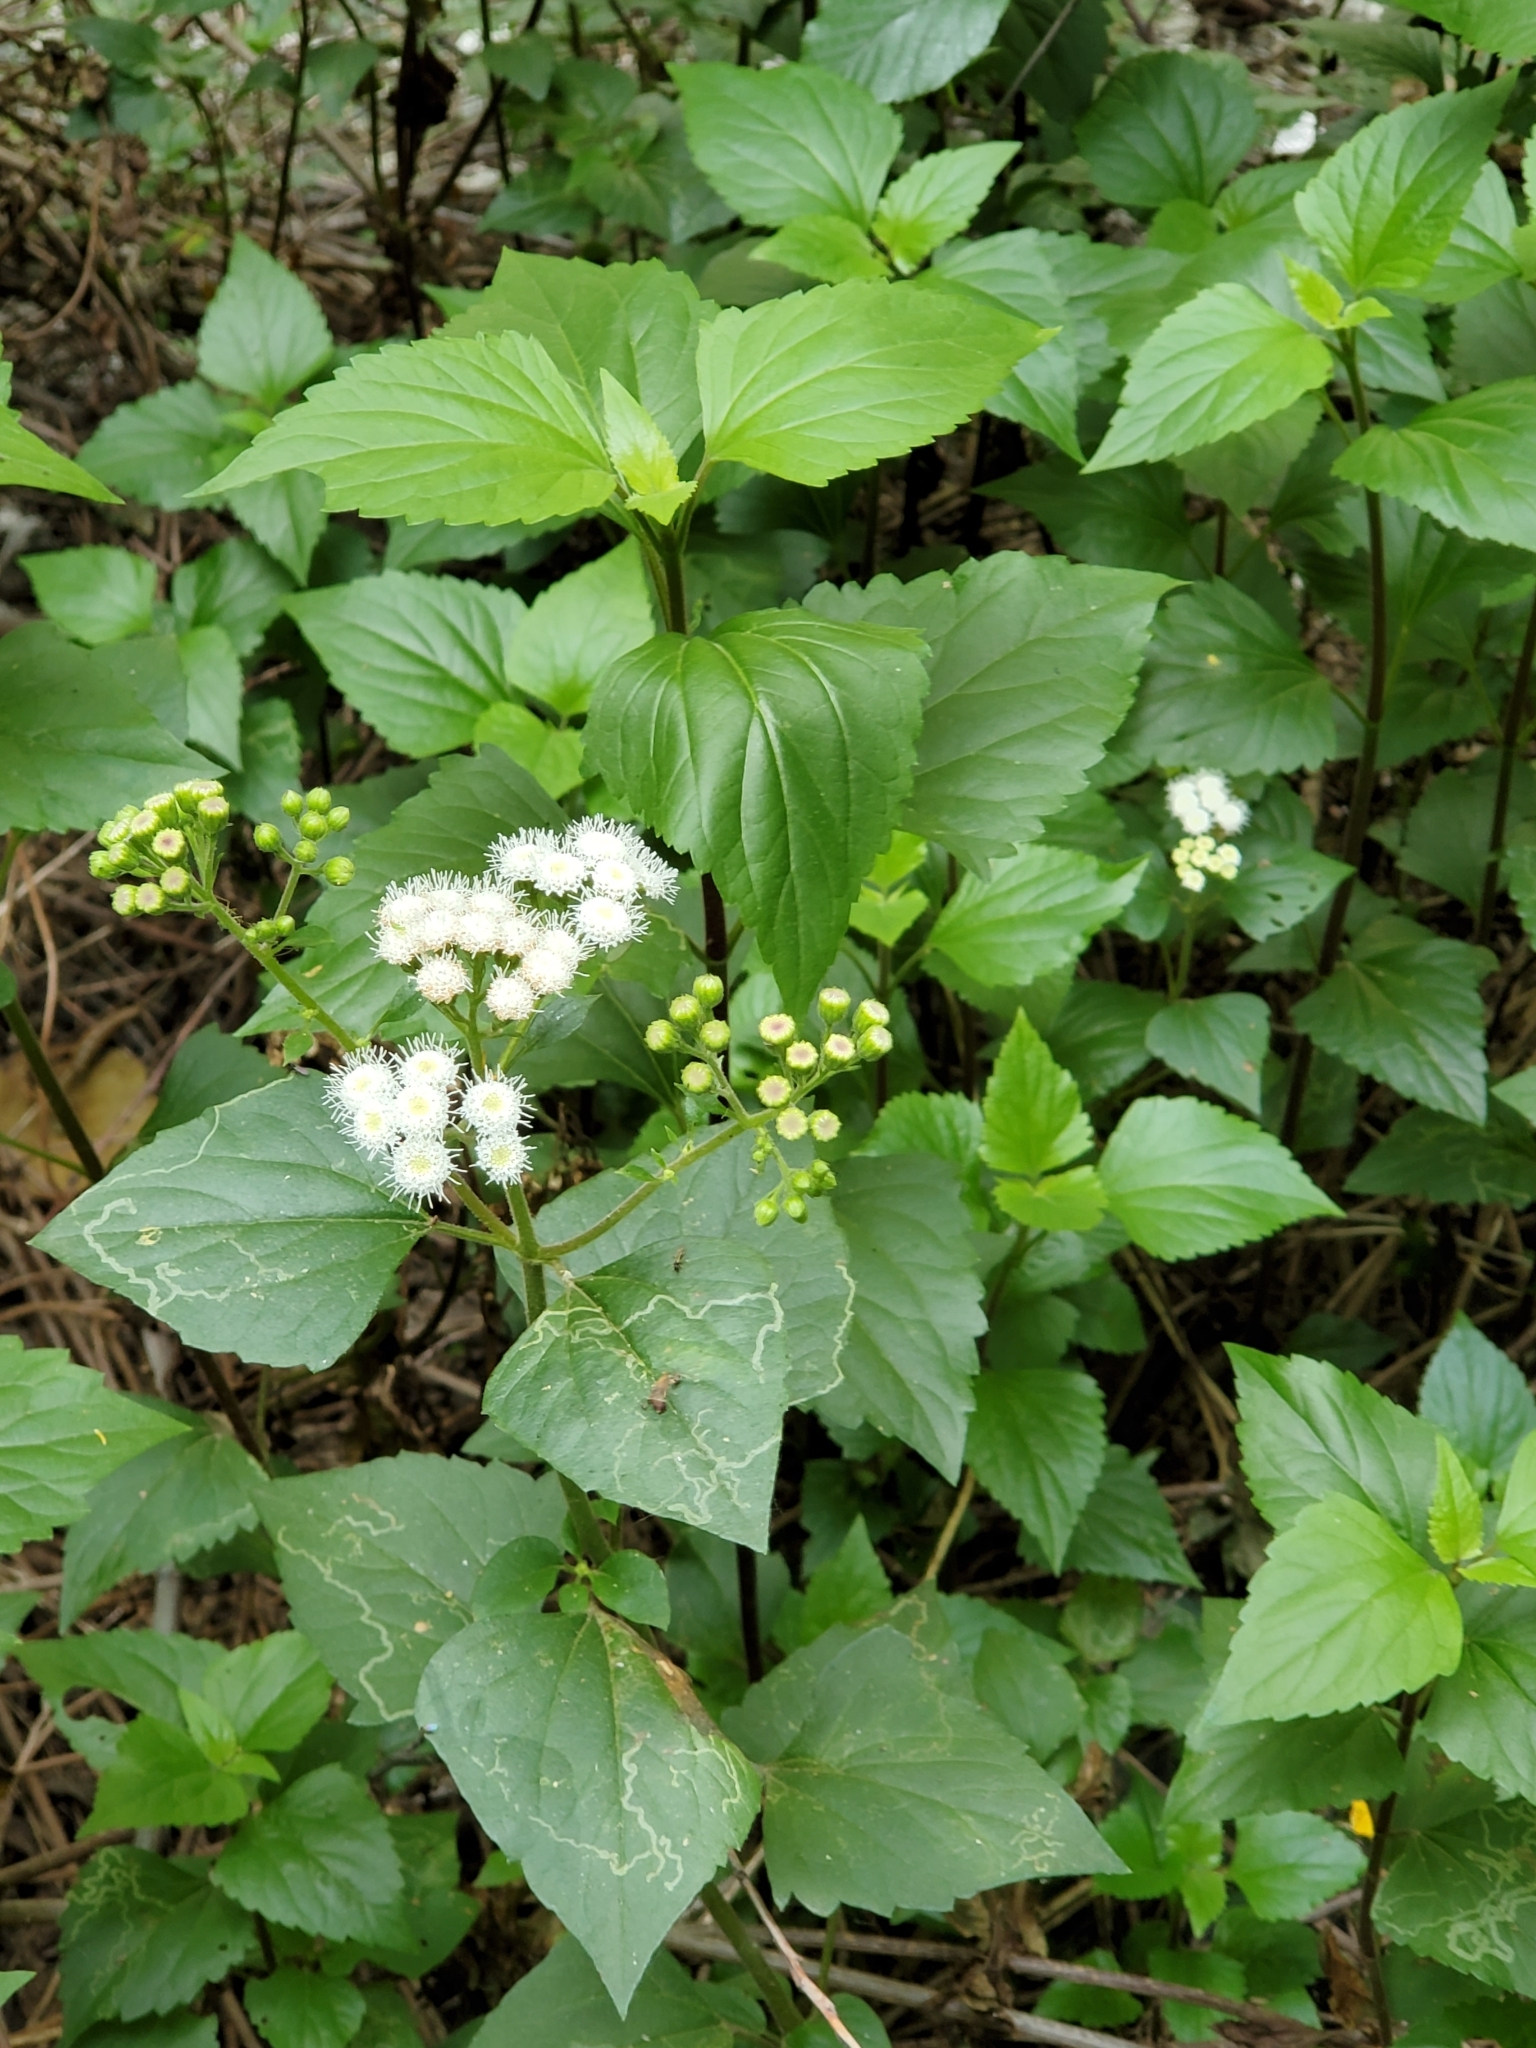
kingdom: Plantae
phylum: Tracheophyta
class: Magnoliopsida
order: Asterales
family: Asteraceae
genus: Ageratina
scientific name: Ageratina adenophora
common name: Sticky snakeroot
